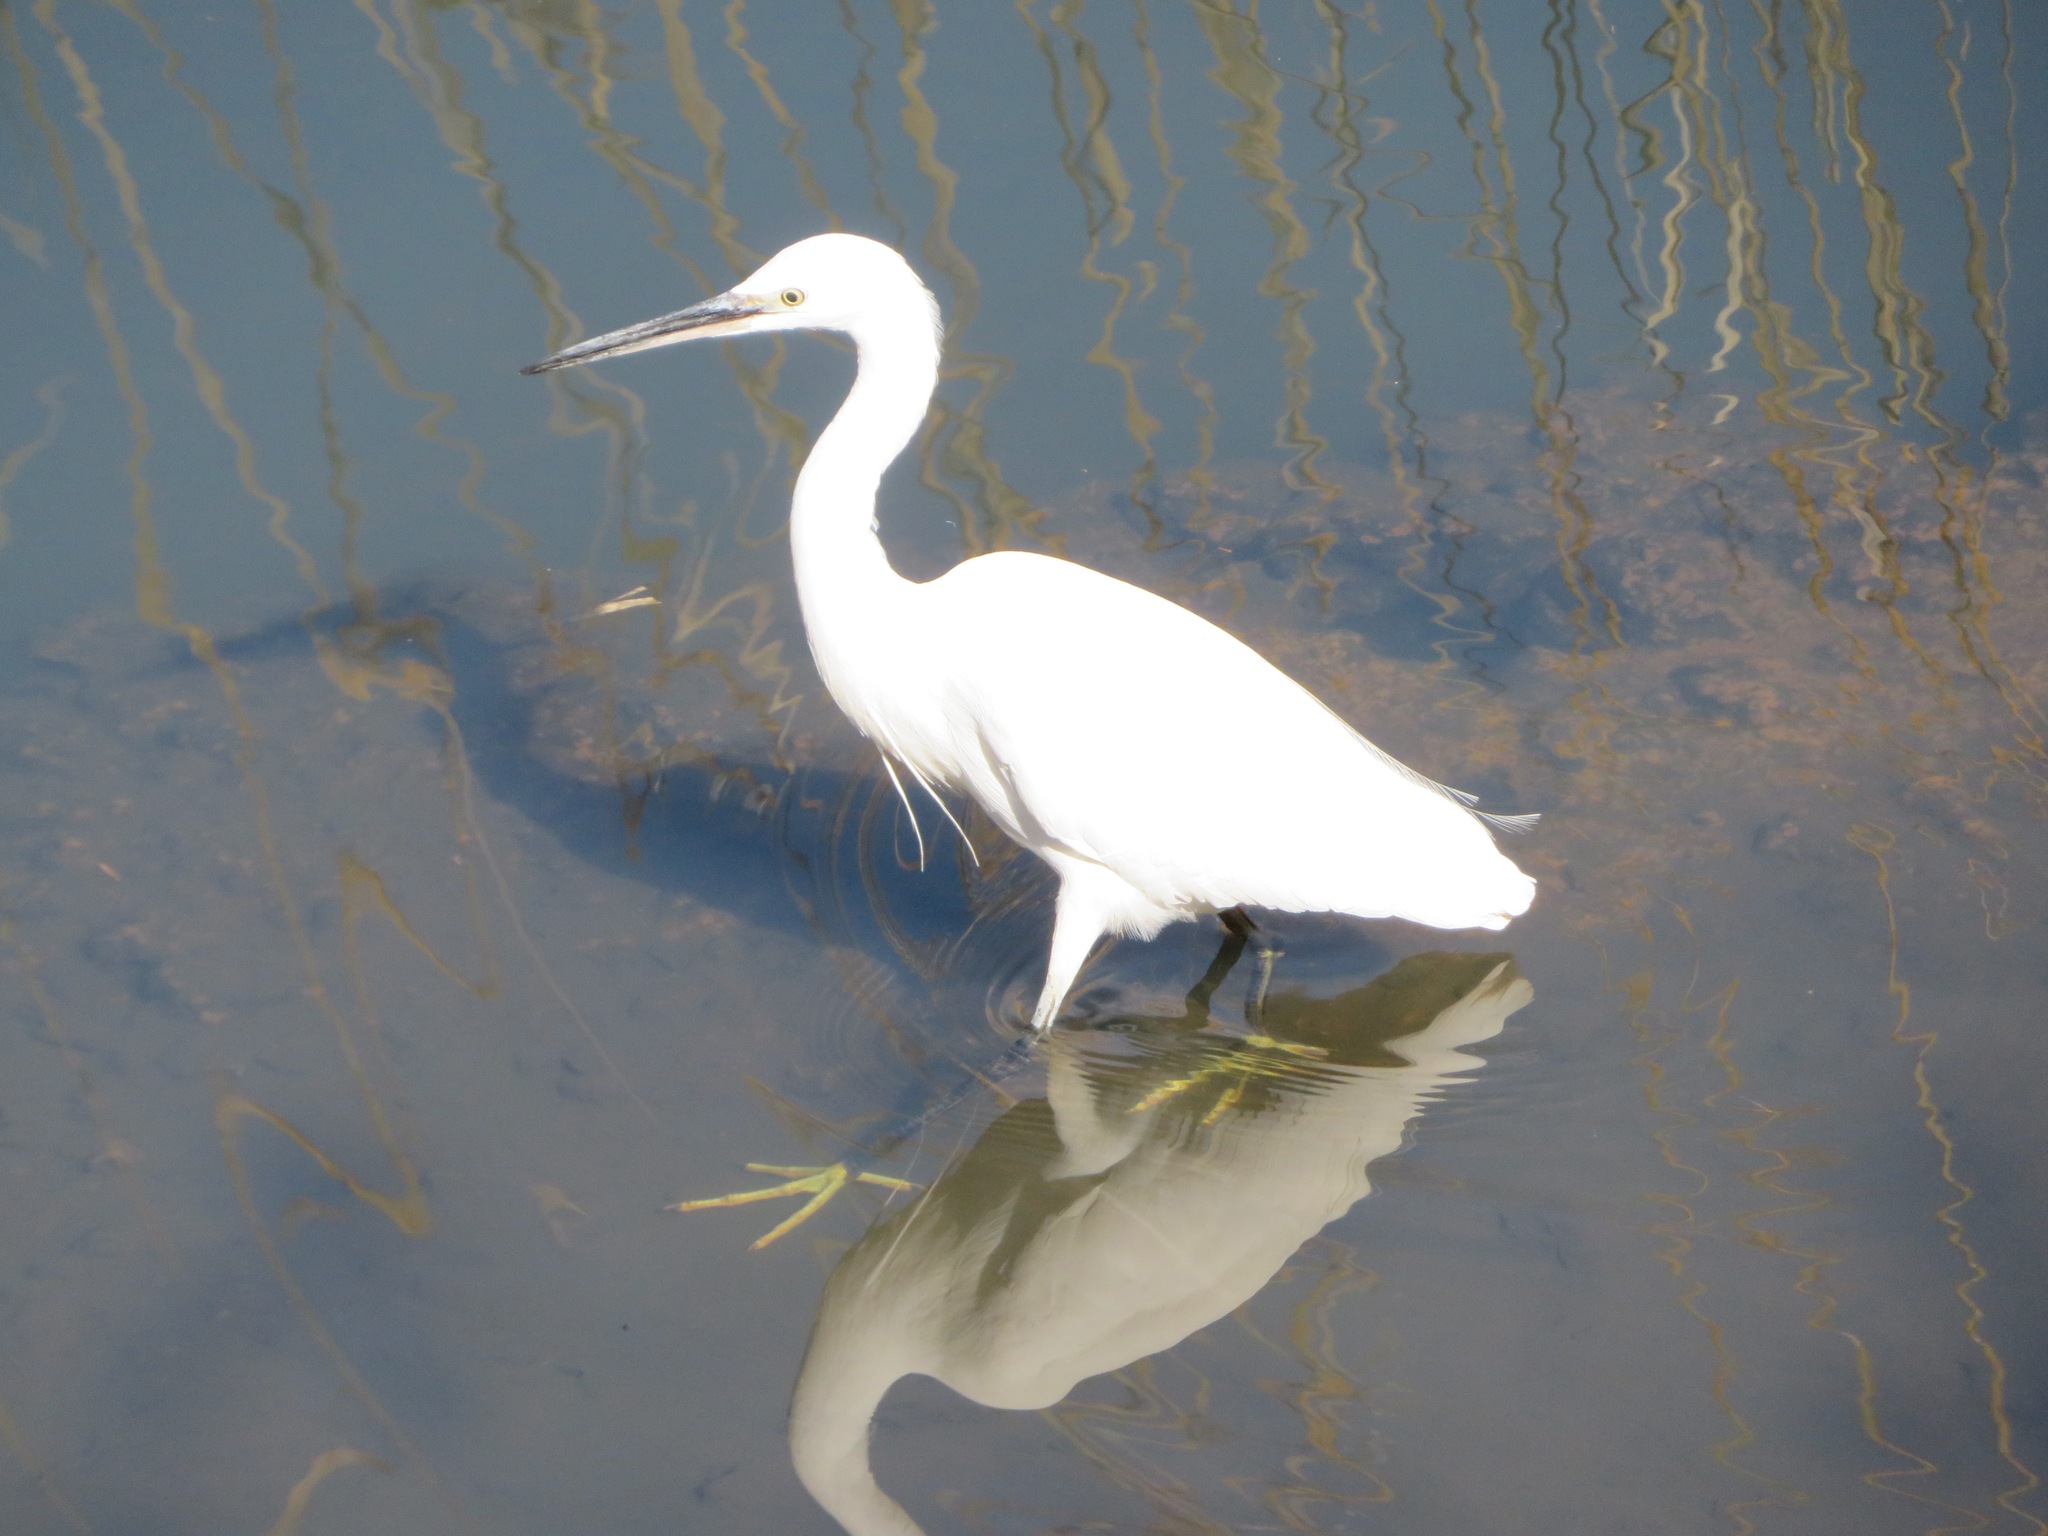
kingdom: Animalia
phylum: Chordata
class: Aves
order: Pelecaniformes
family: Ardeidae
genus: Egretta
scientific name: Egretta garzetta
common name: Little egret
